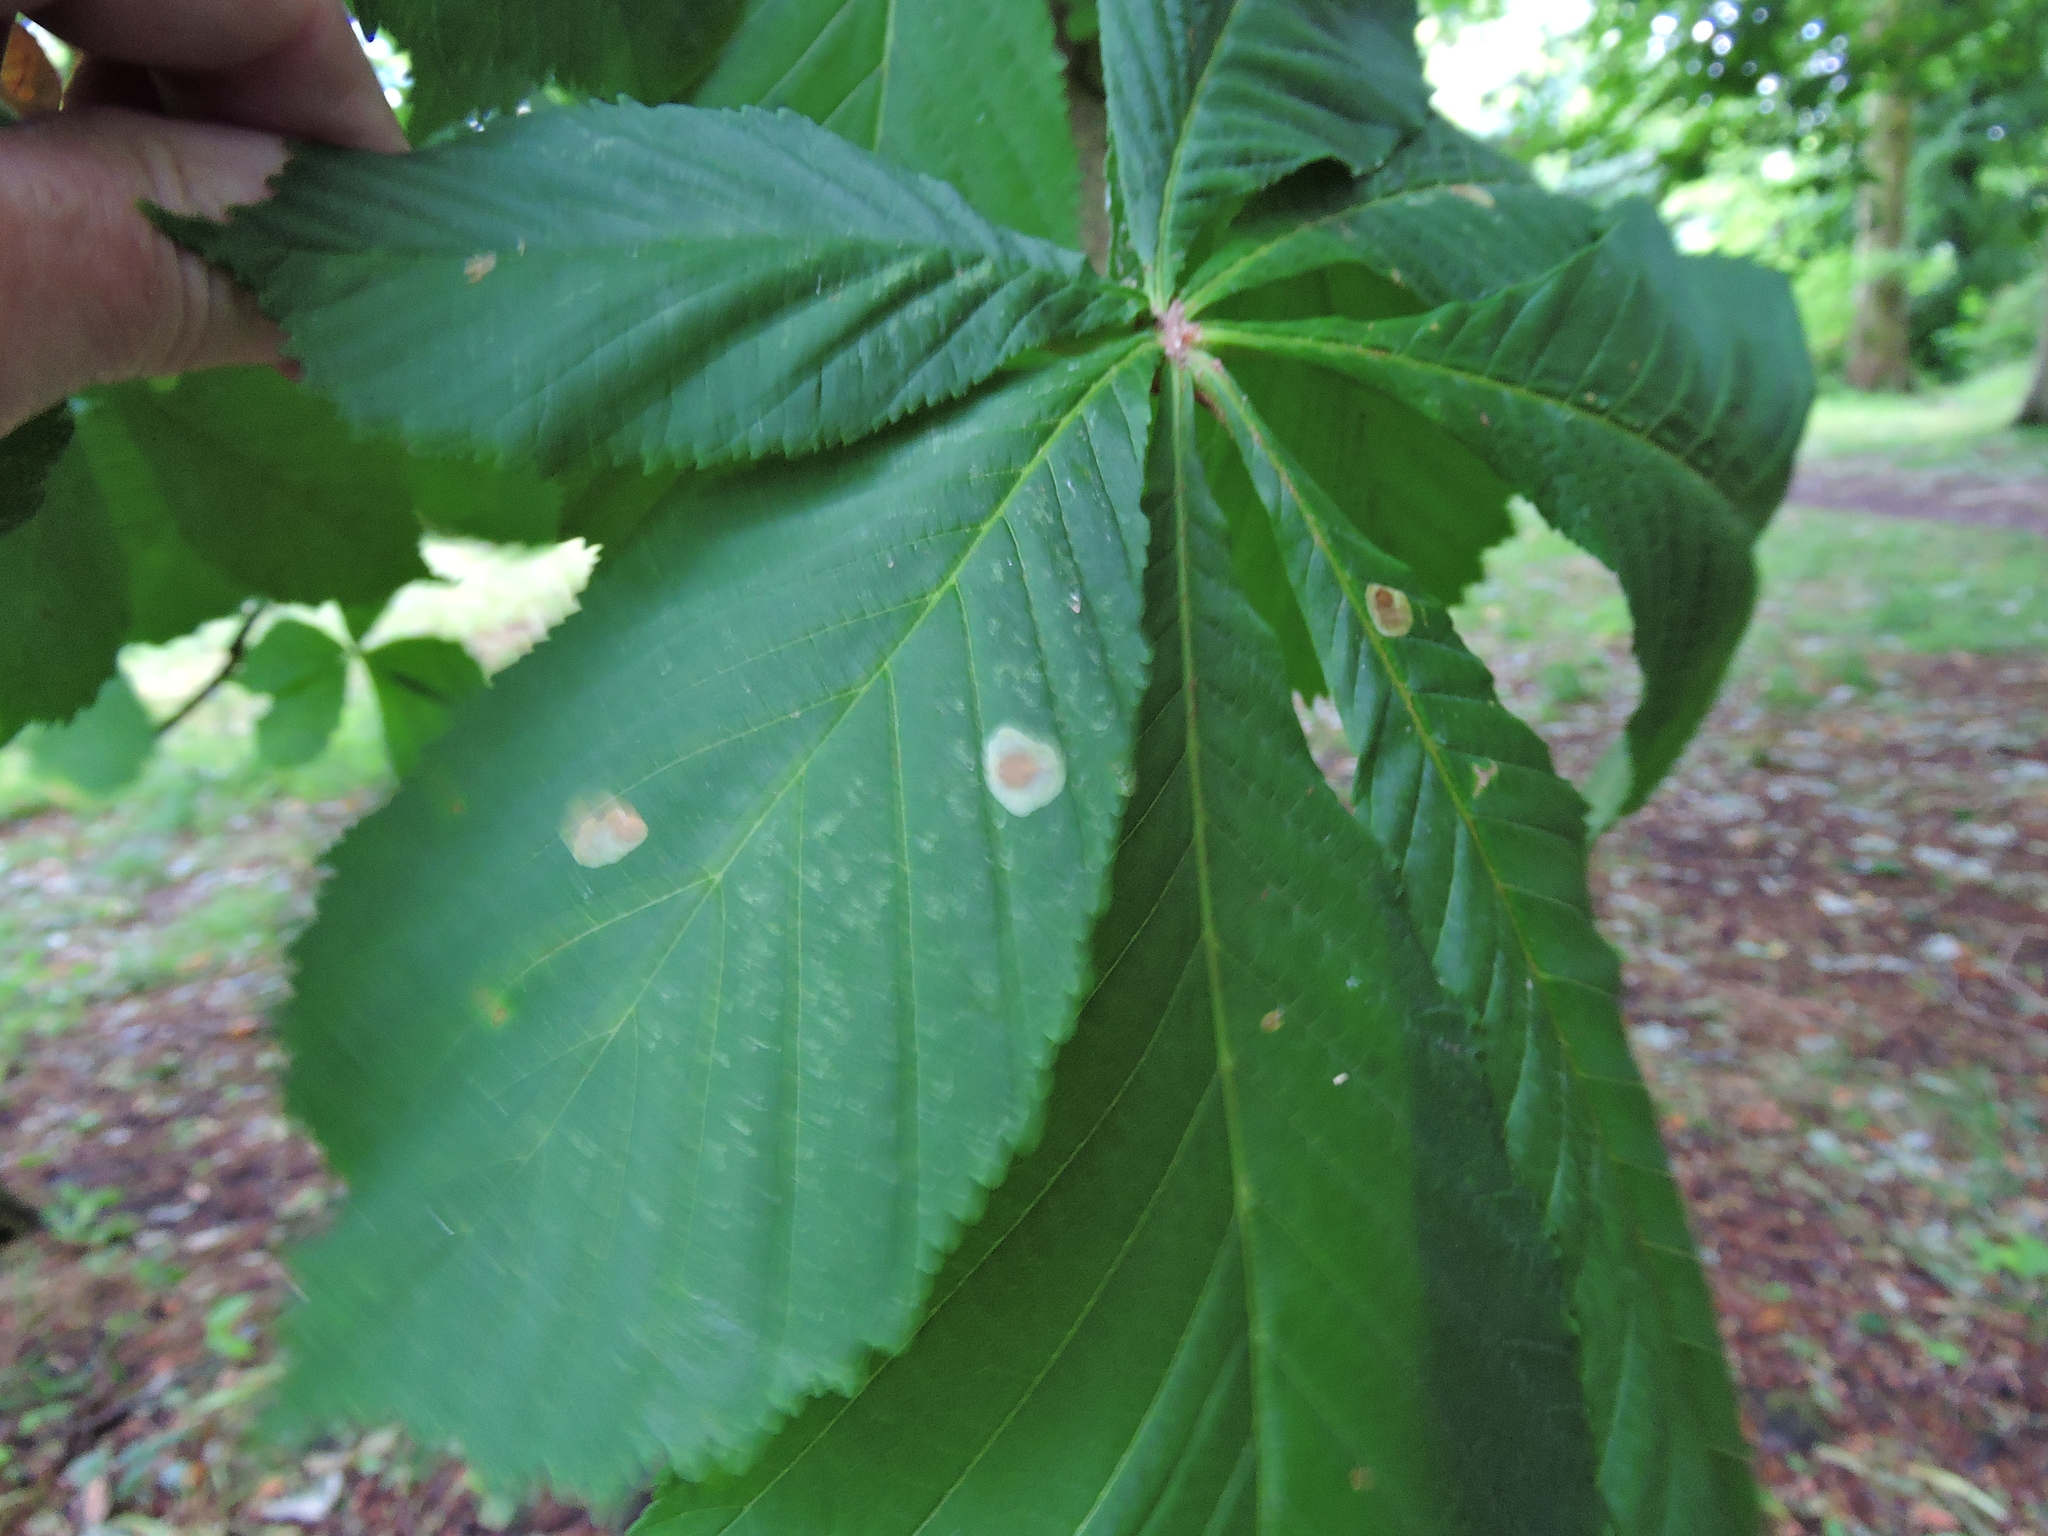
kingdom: Plantae
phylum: Tracheophyta
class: Magnoliopsida
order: Sapindales
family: Sapindaceae
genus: Aesculus
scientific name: Aesculus hippocastanum
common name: Horse-chestnut
